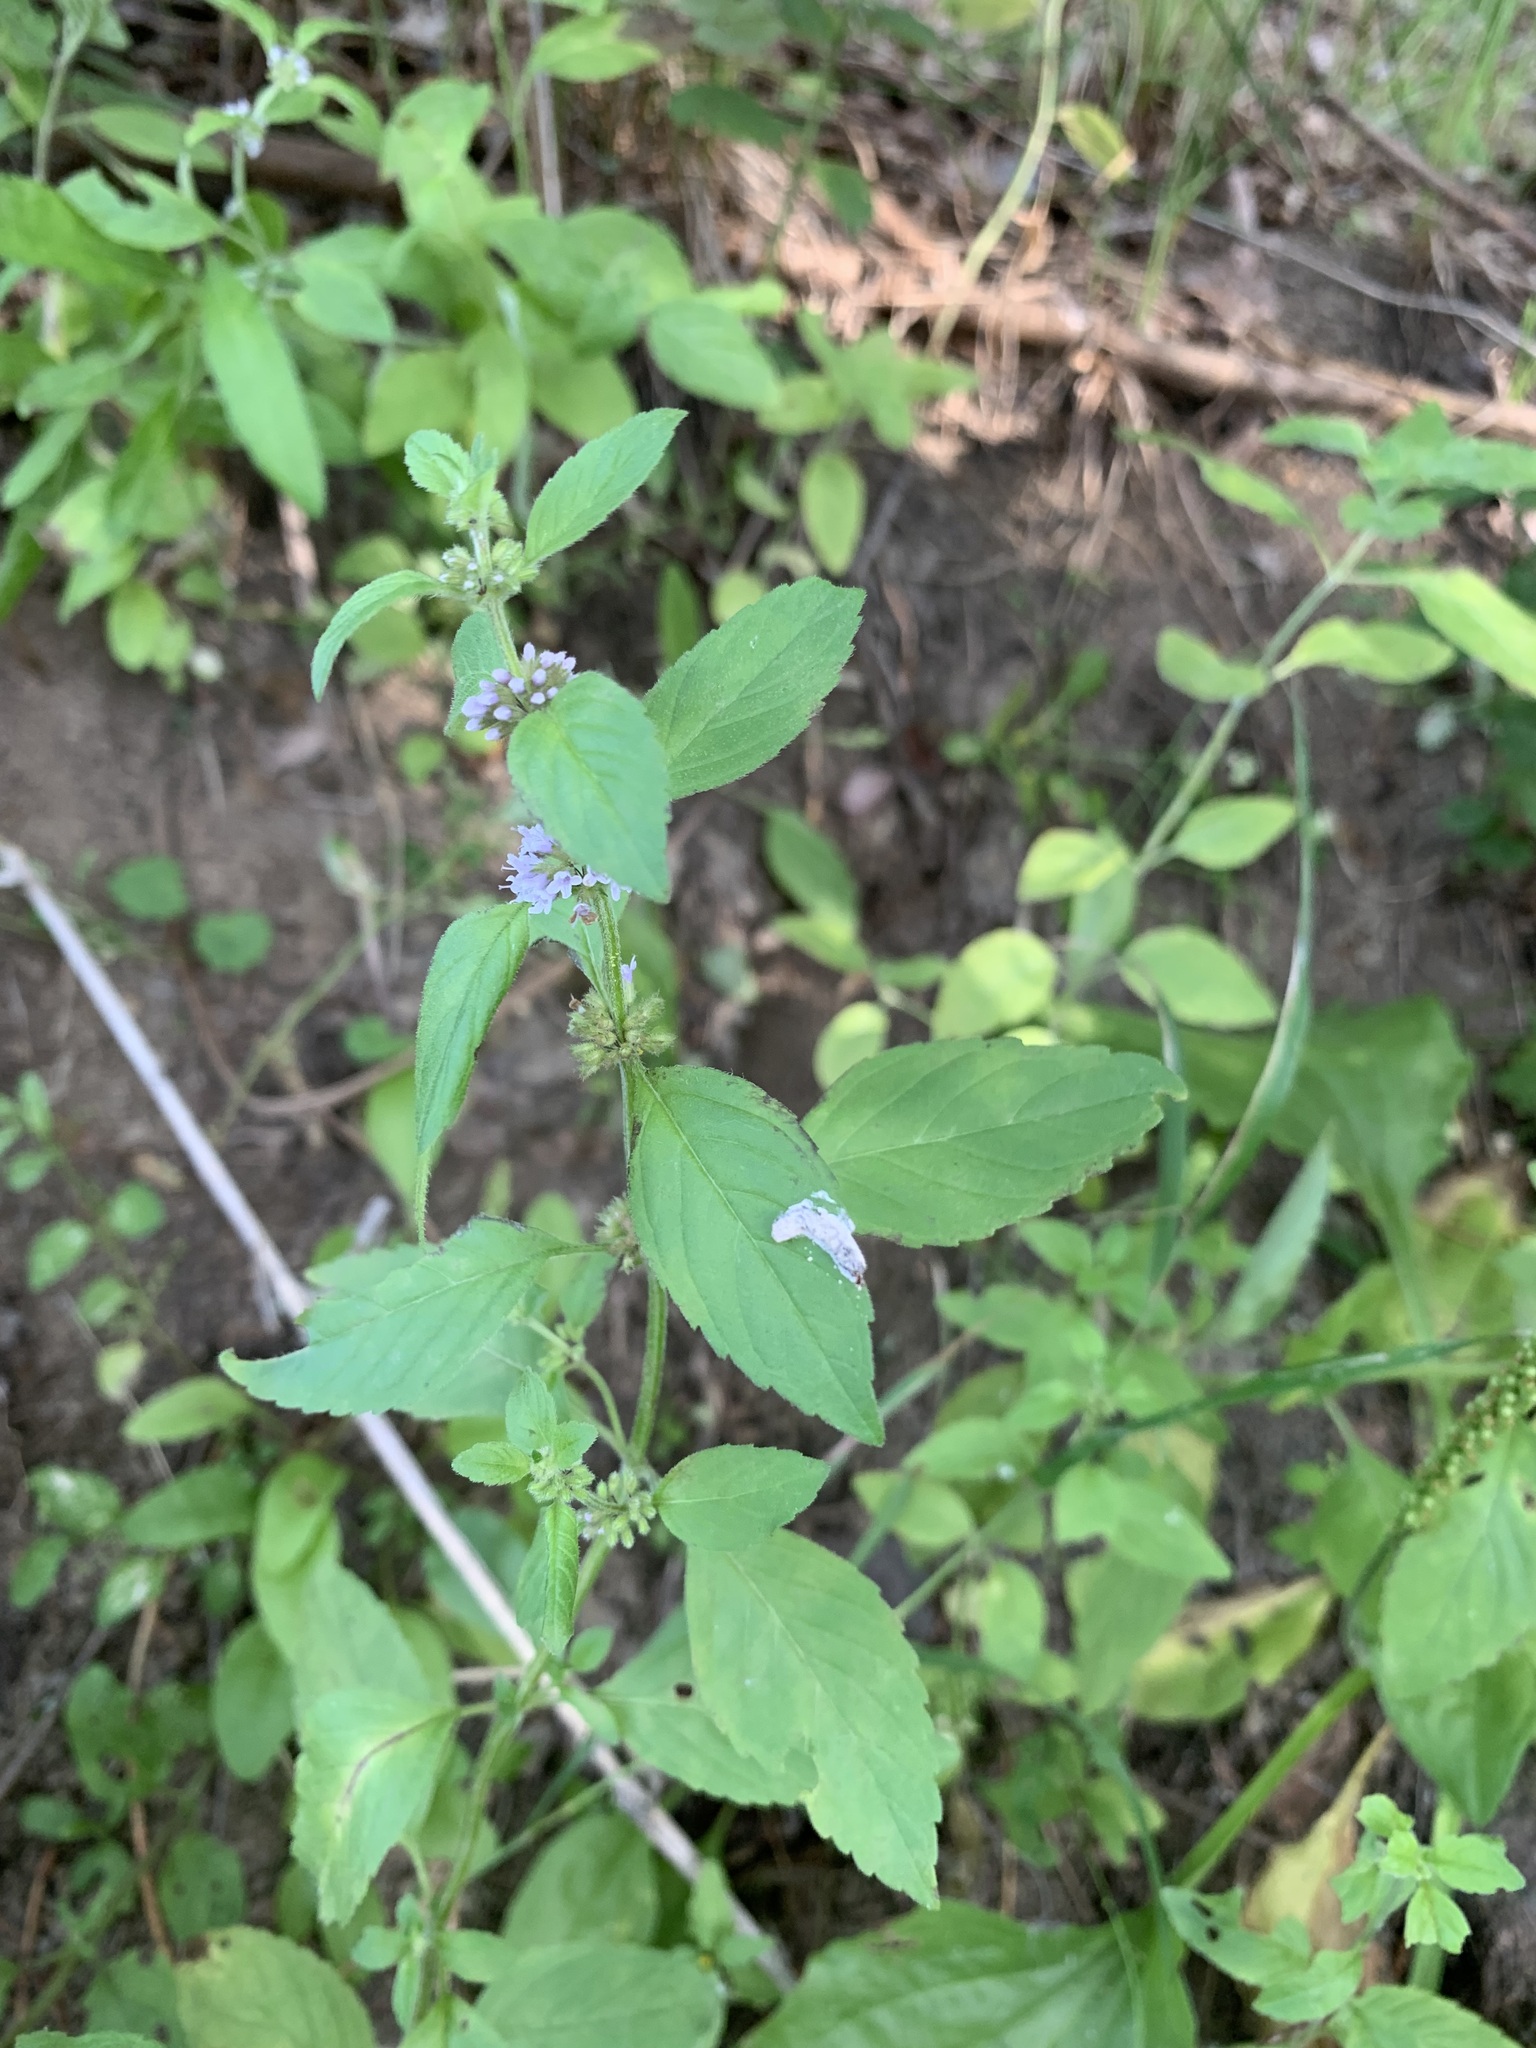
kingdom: Plantae
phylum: Tracheophyta
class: Magnoliopsida
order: Lamiales
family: Lamiaceae
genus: Mentha
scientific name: Mentha arvensis
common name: Corn mint
